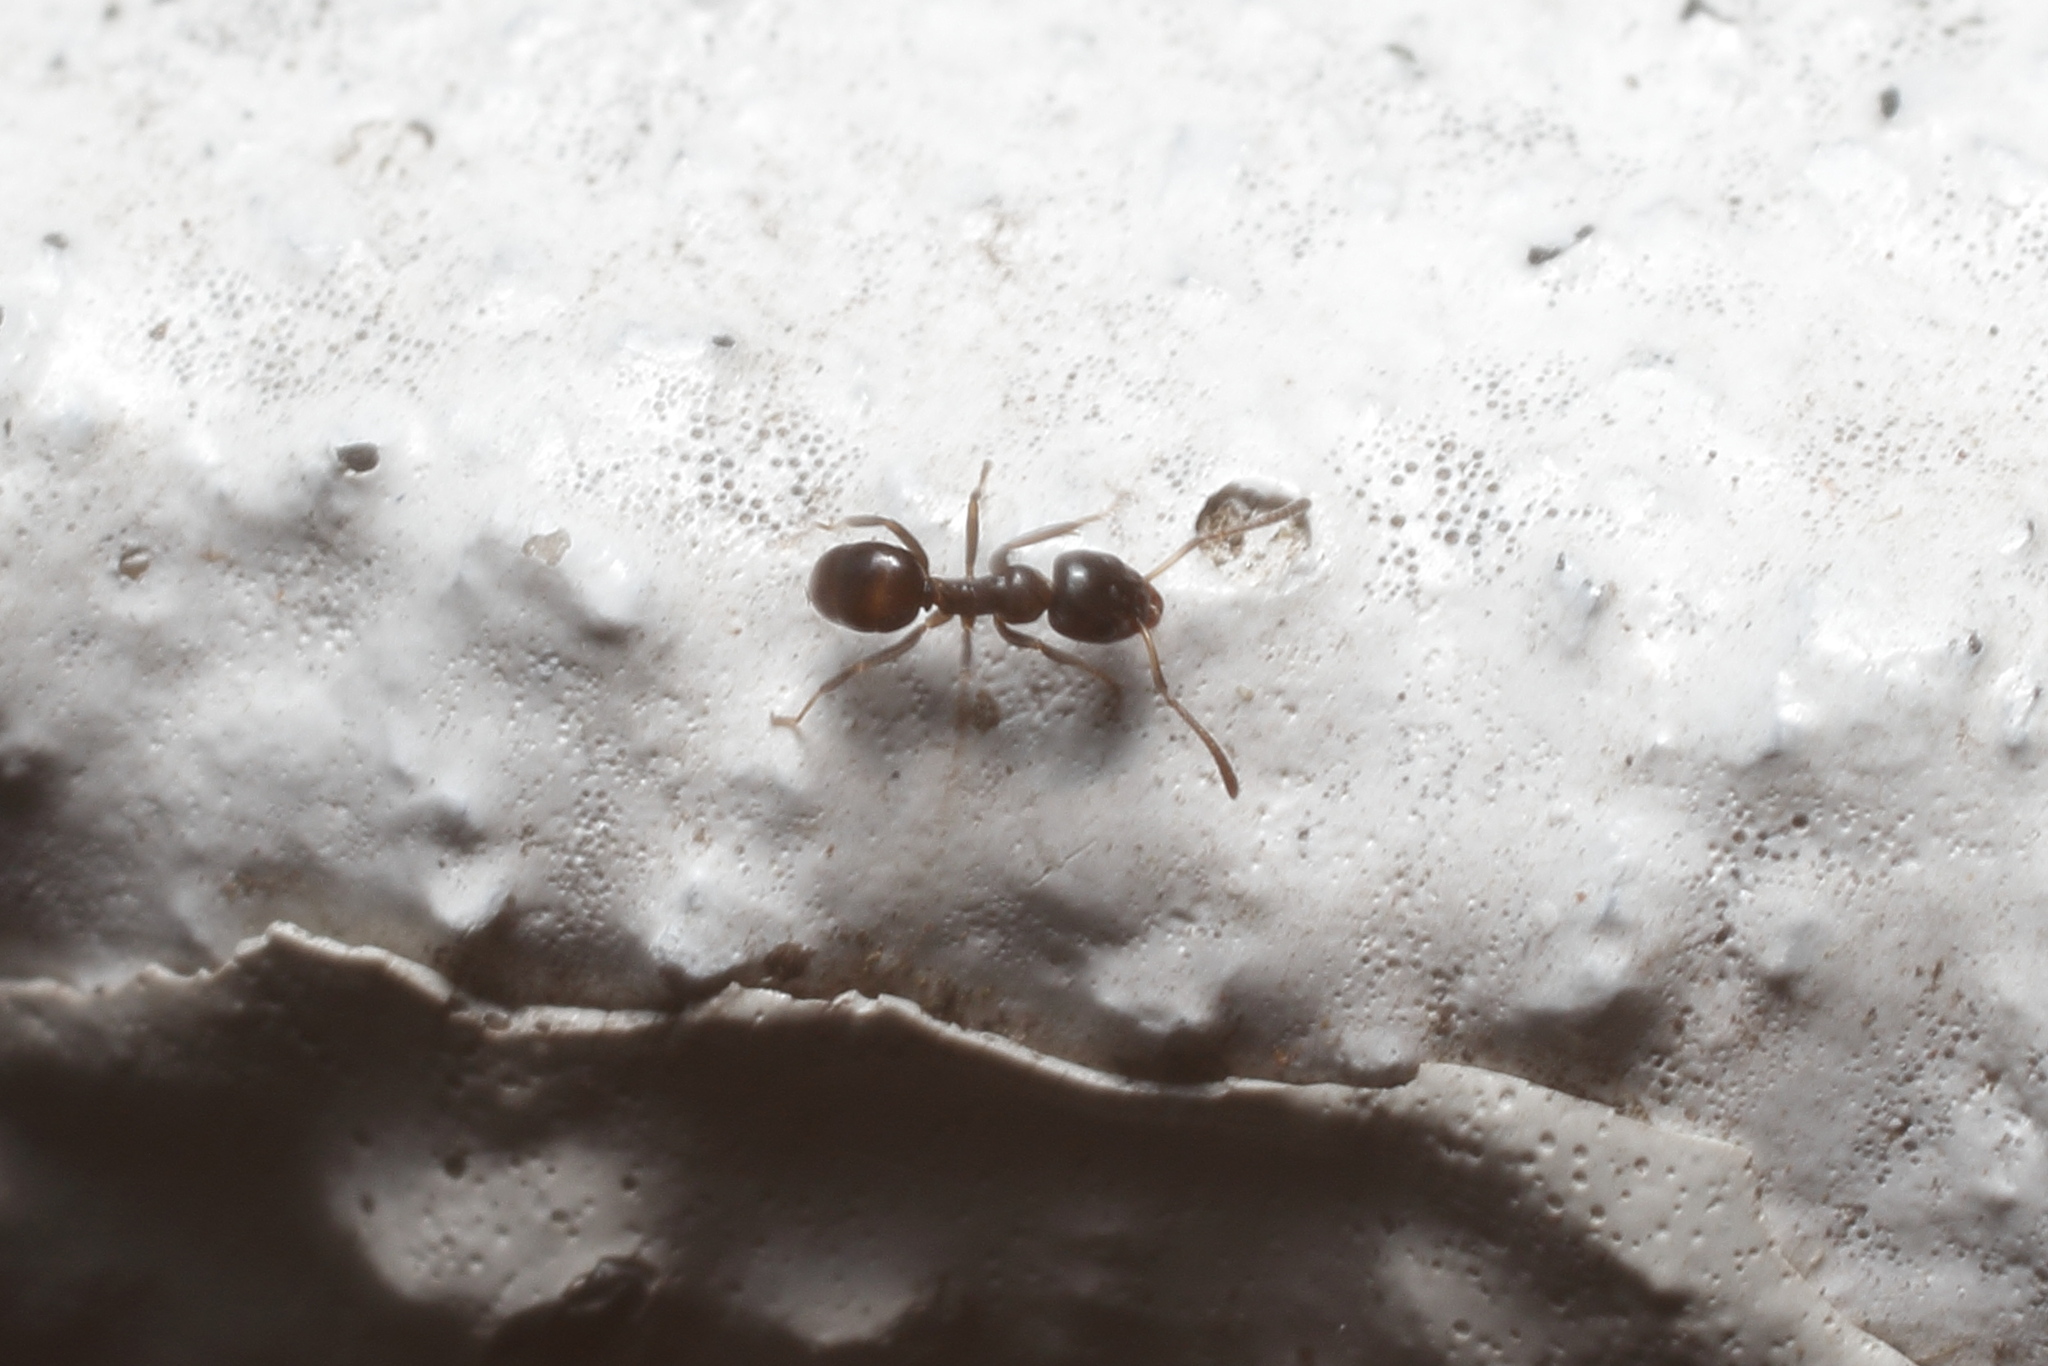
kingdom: Animalia
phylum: Arthropoda
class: Insecta
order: Hymenoptera
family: Formicidae
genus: Ochetellus
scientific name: Ochetellus glaber
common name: Ant
